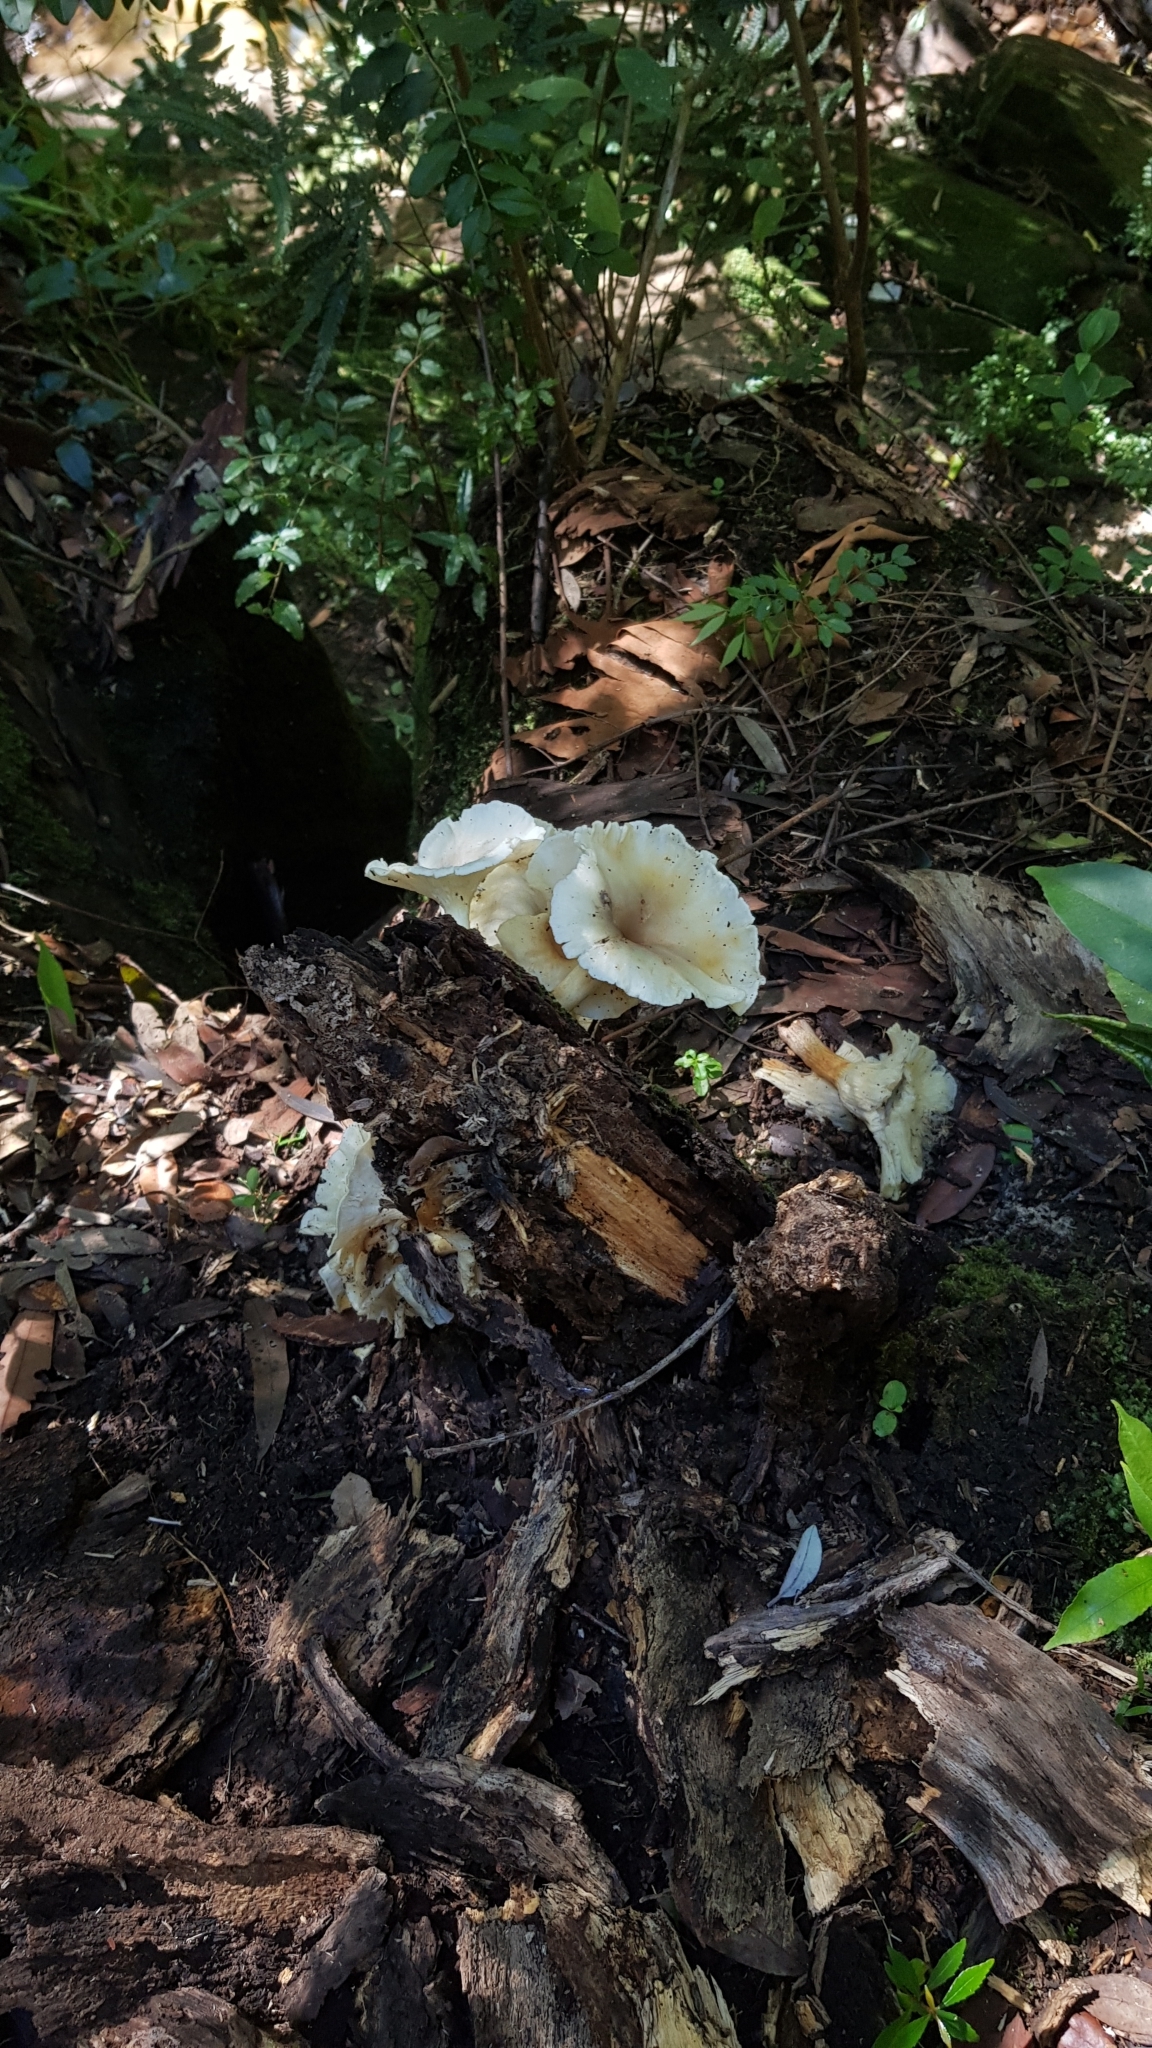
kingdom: Fungi
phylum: Basidiomycota
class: Agaricomycetes
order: Agaricales
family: Omphalotaceae
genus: Omphalotus
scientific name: Omphalotus nidiformis
